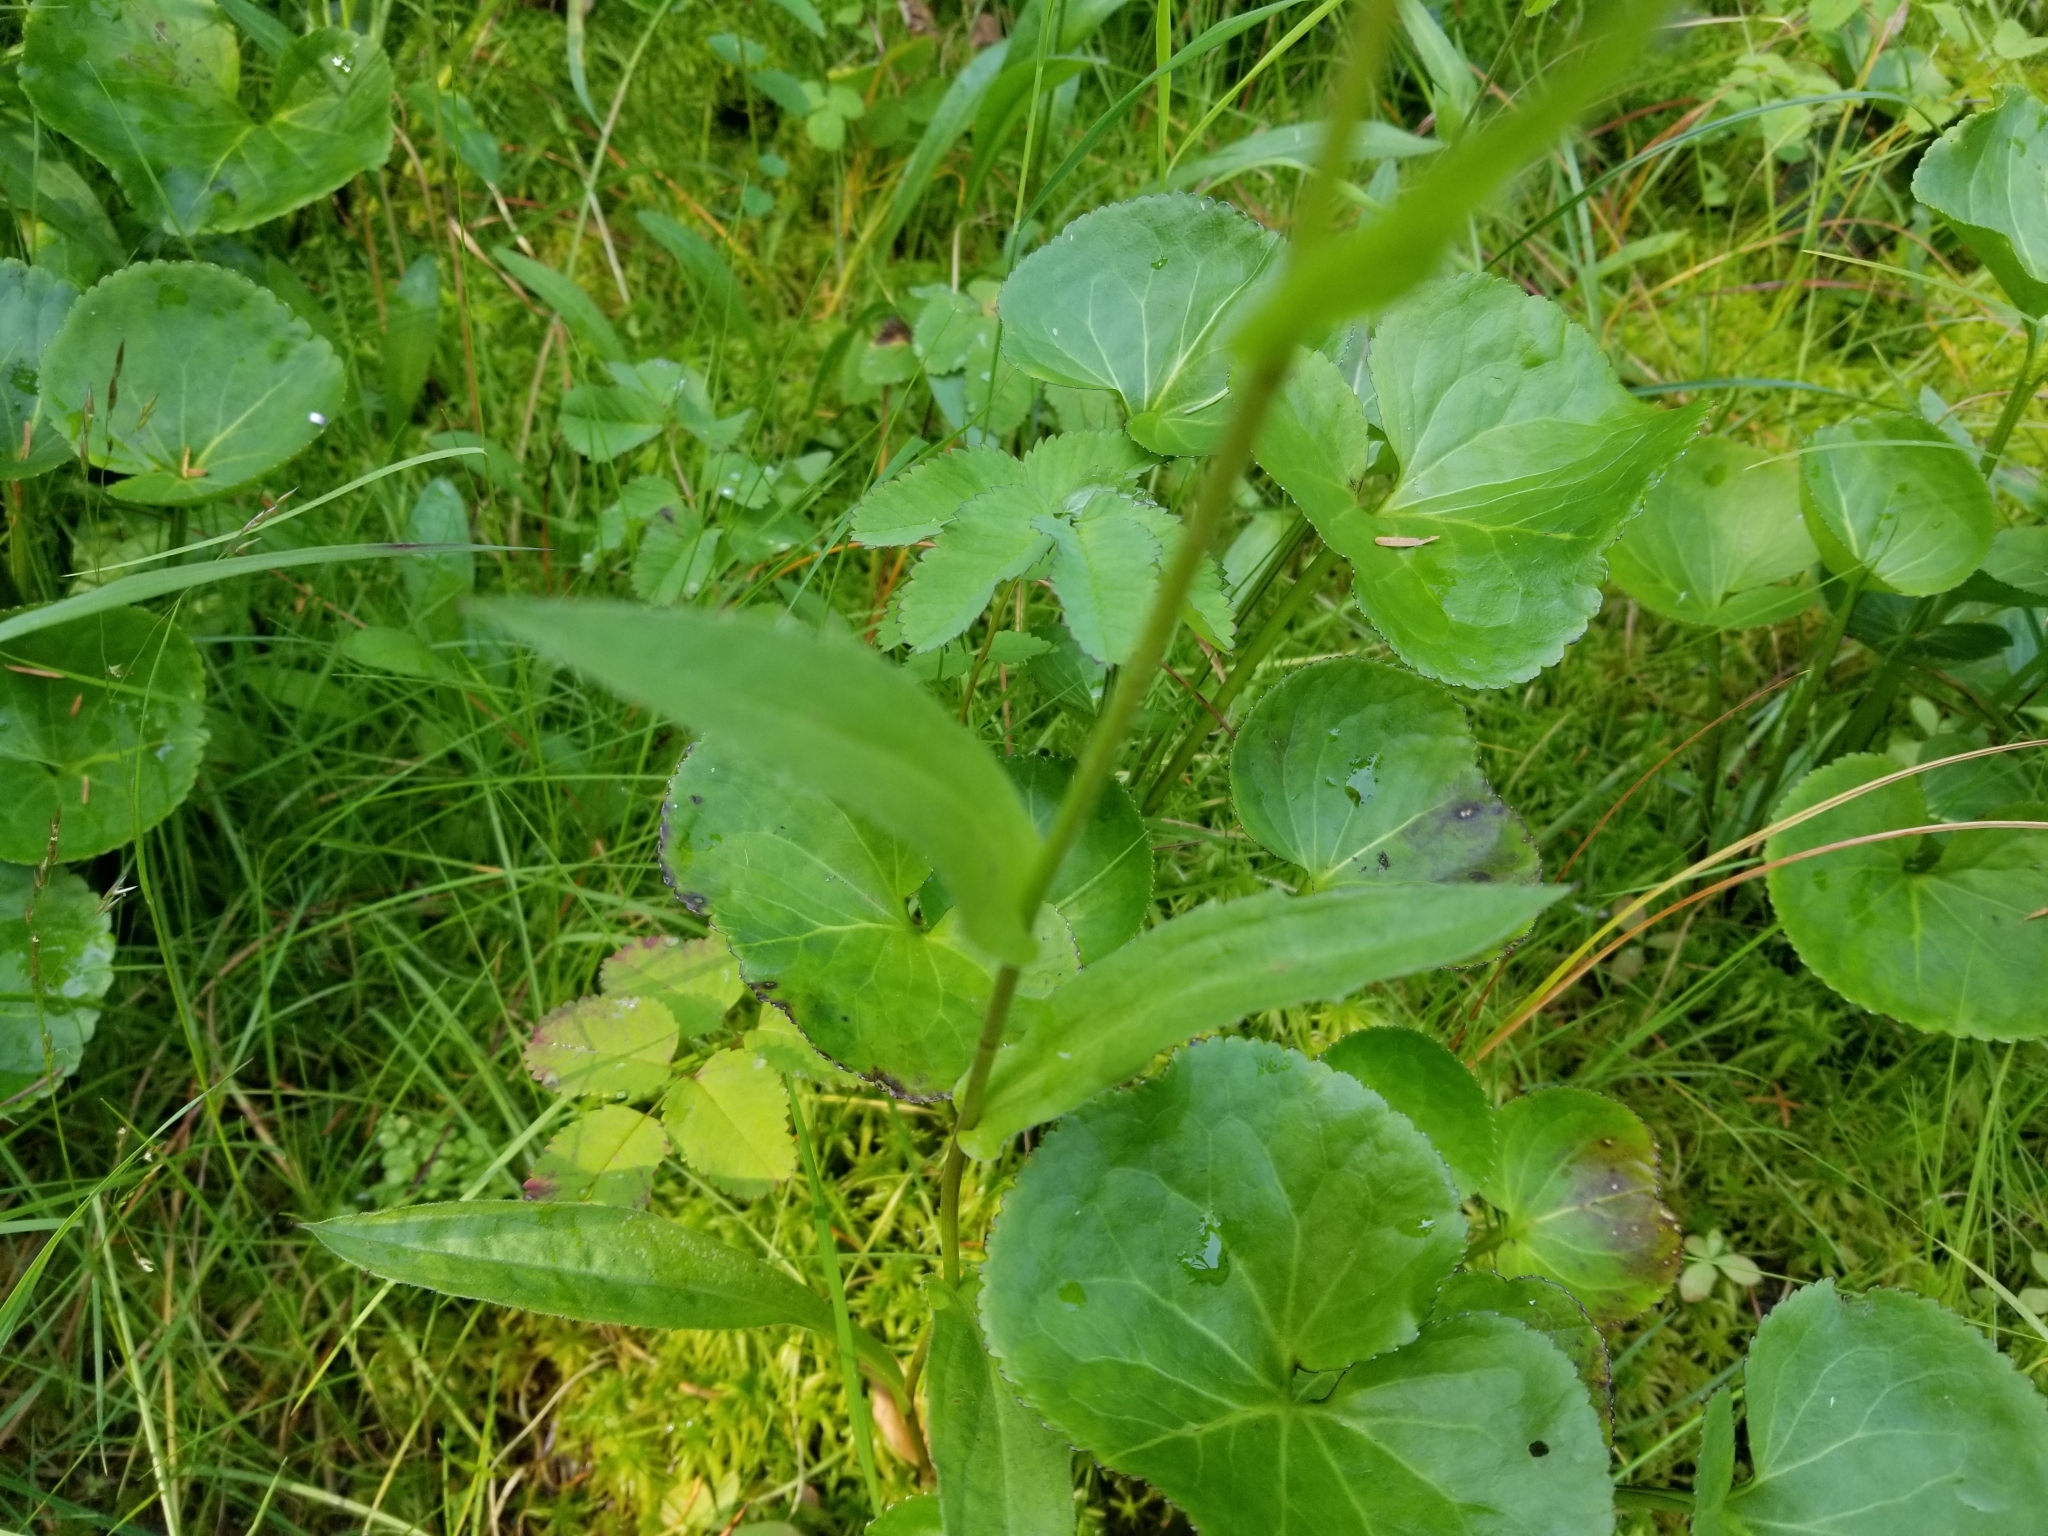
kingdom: Plantae
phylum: Tracheophyta
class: Magnoliopsida
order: Asterales
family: Asteraceae
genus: Erigeron
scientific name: Erigeron peregrinus
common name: Peregrine fleabane
